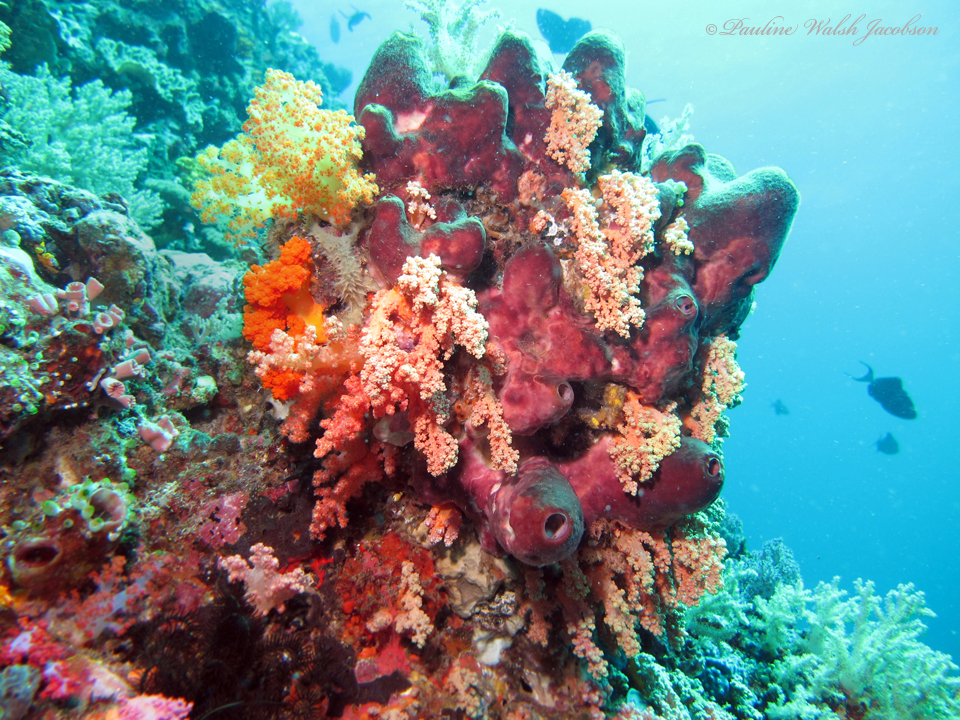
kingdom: Animalia
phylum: Porifera
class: Demospongiae
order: Tetractinellida
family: Theonellidae
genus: Theonella
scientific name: Theonella swinhoei
